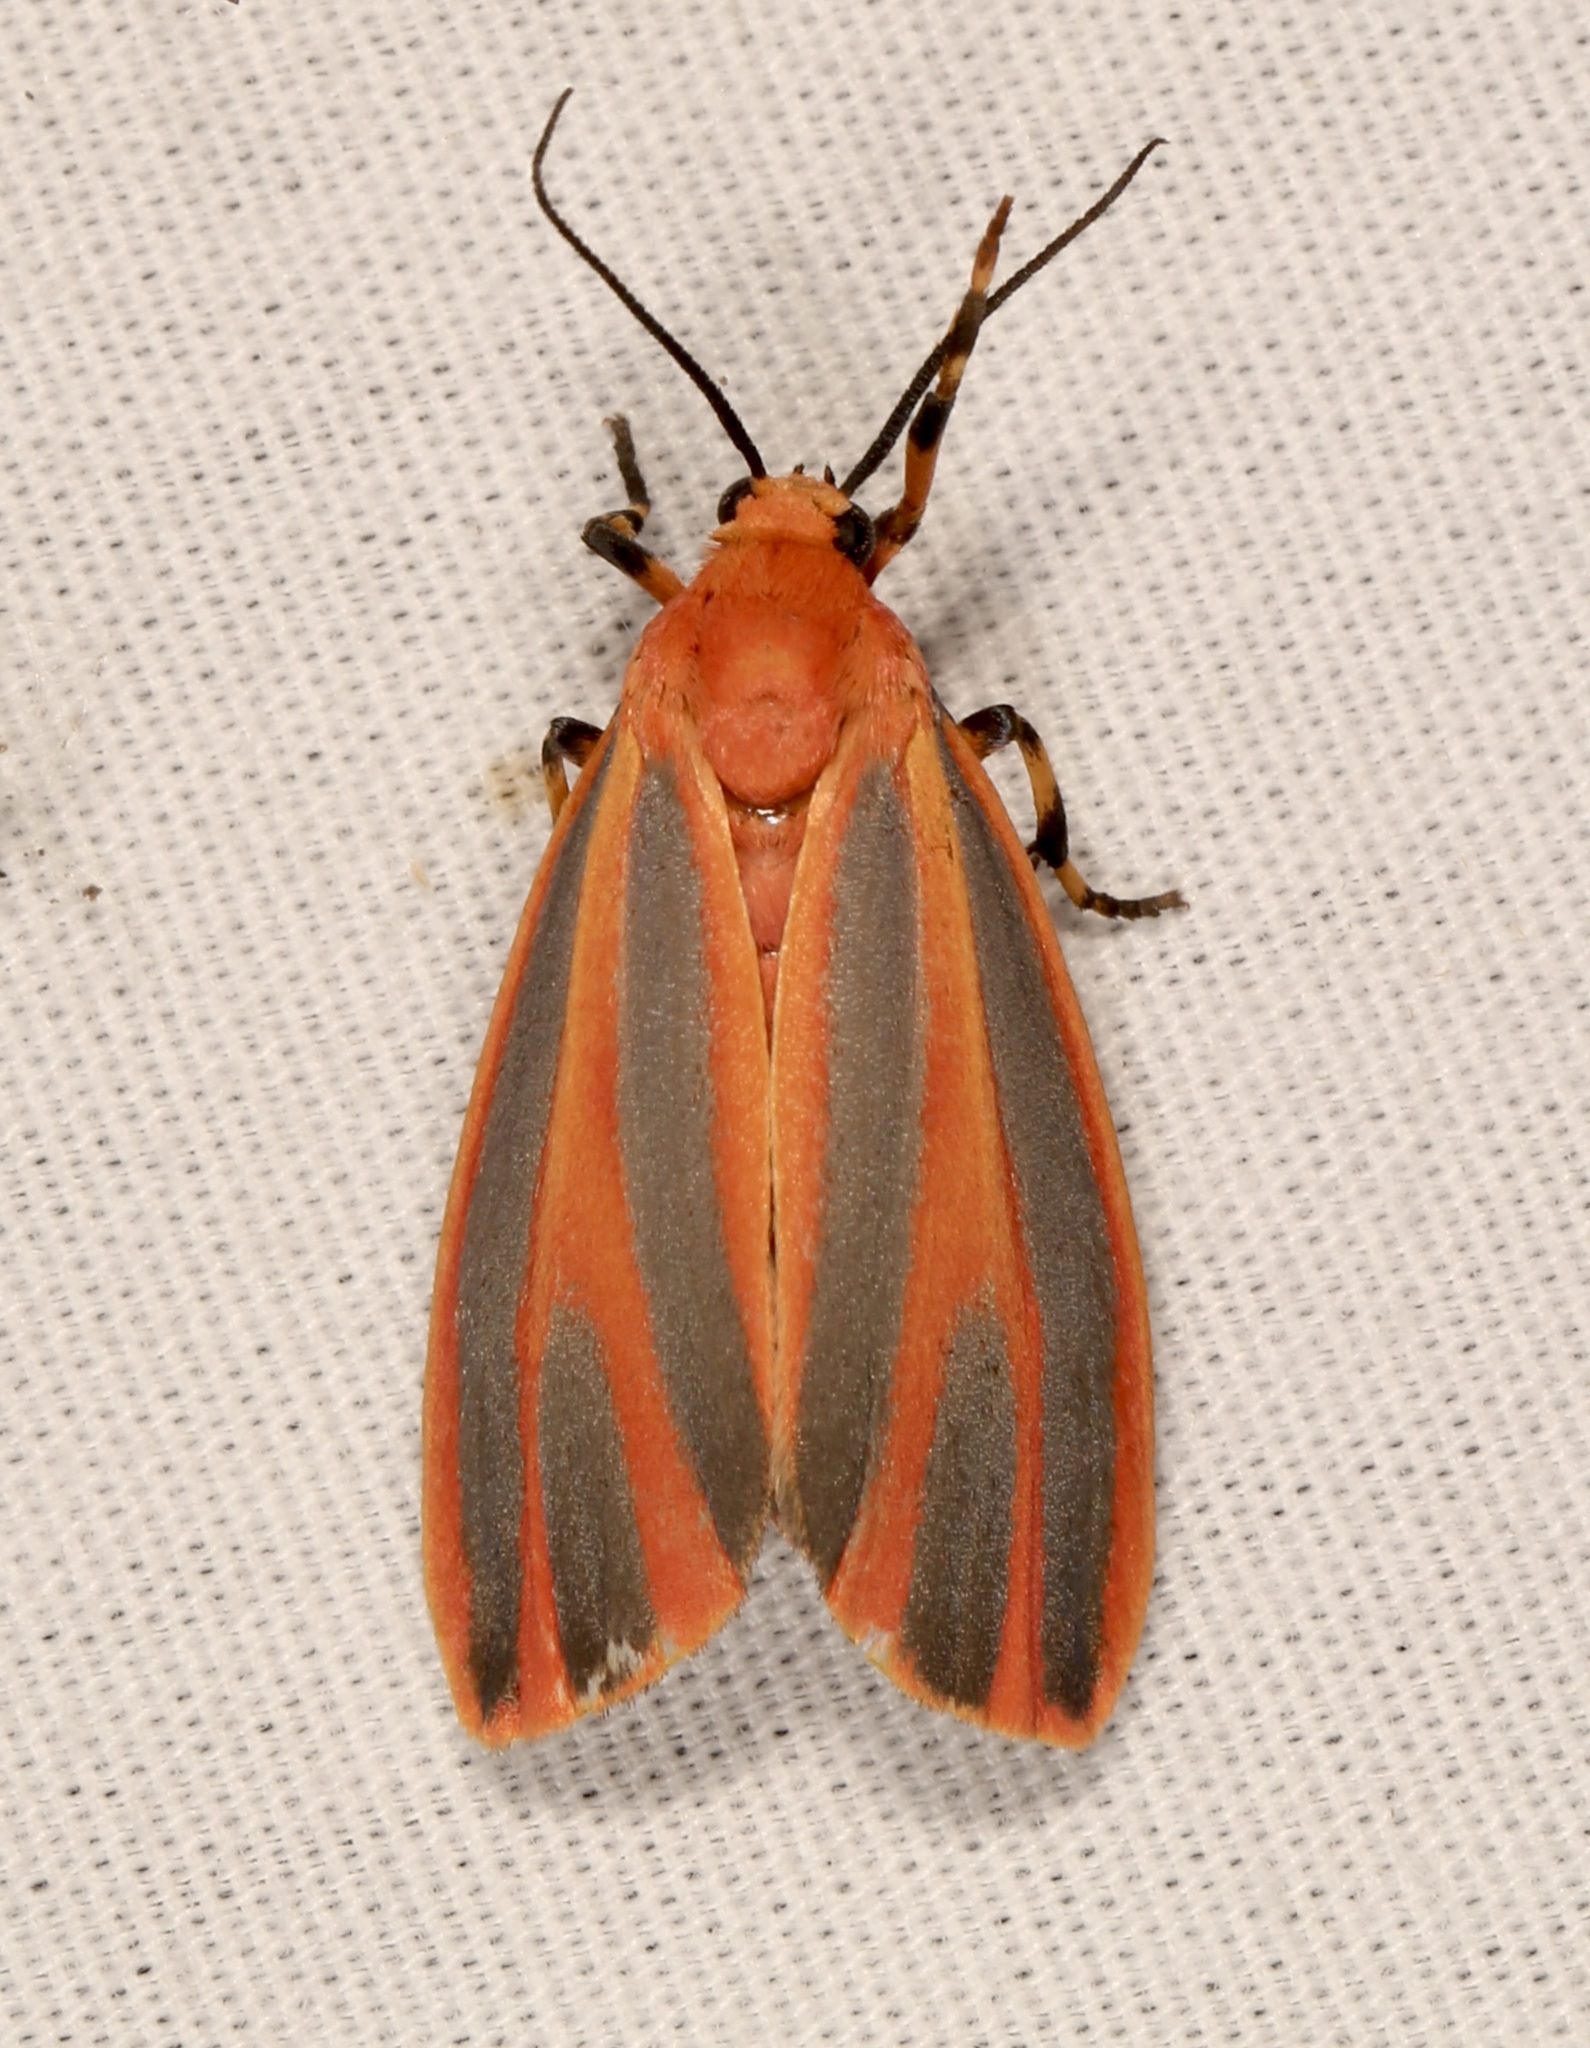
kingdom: Animalia
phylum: Arthropoda
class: Insecta
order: Lepidoptera
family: Erebidae
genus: Hypoprepia
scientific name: Hypoprepia miniata
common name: Scarlet-winged lichen moth
